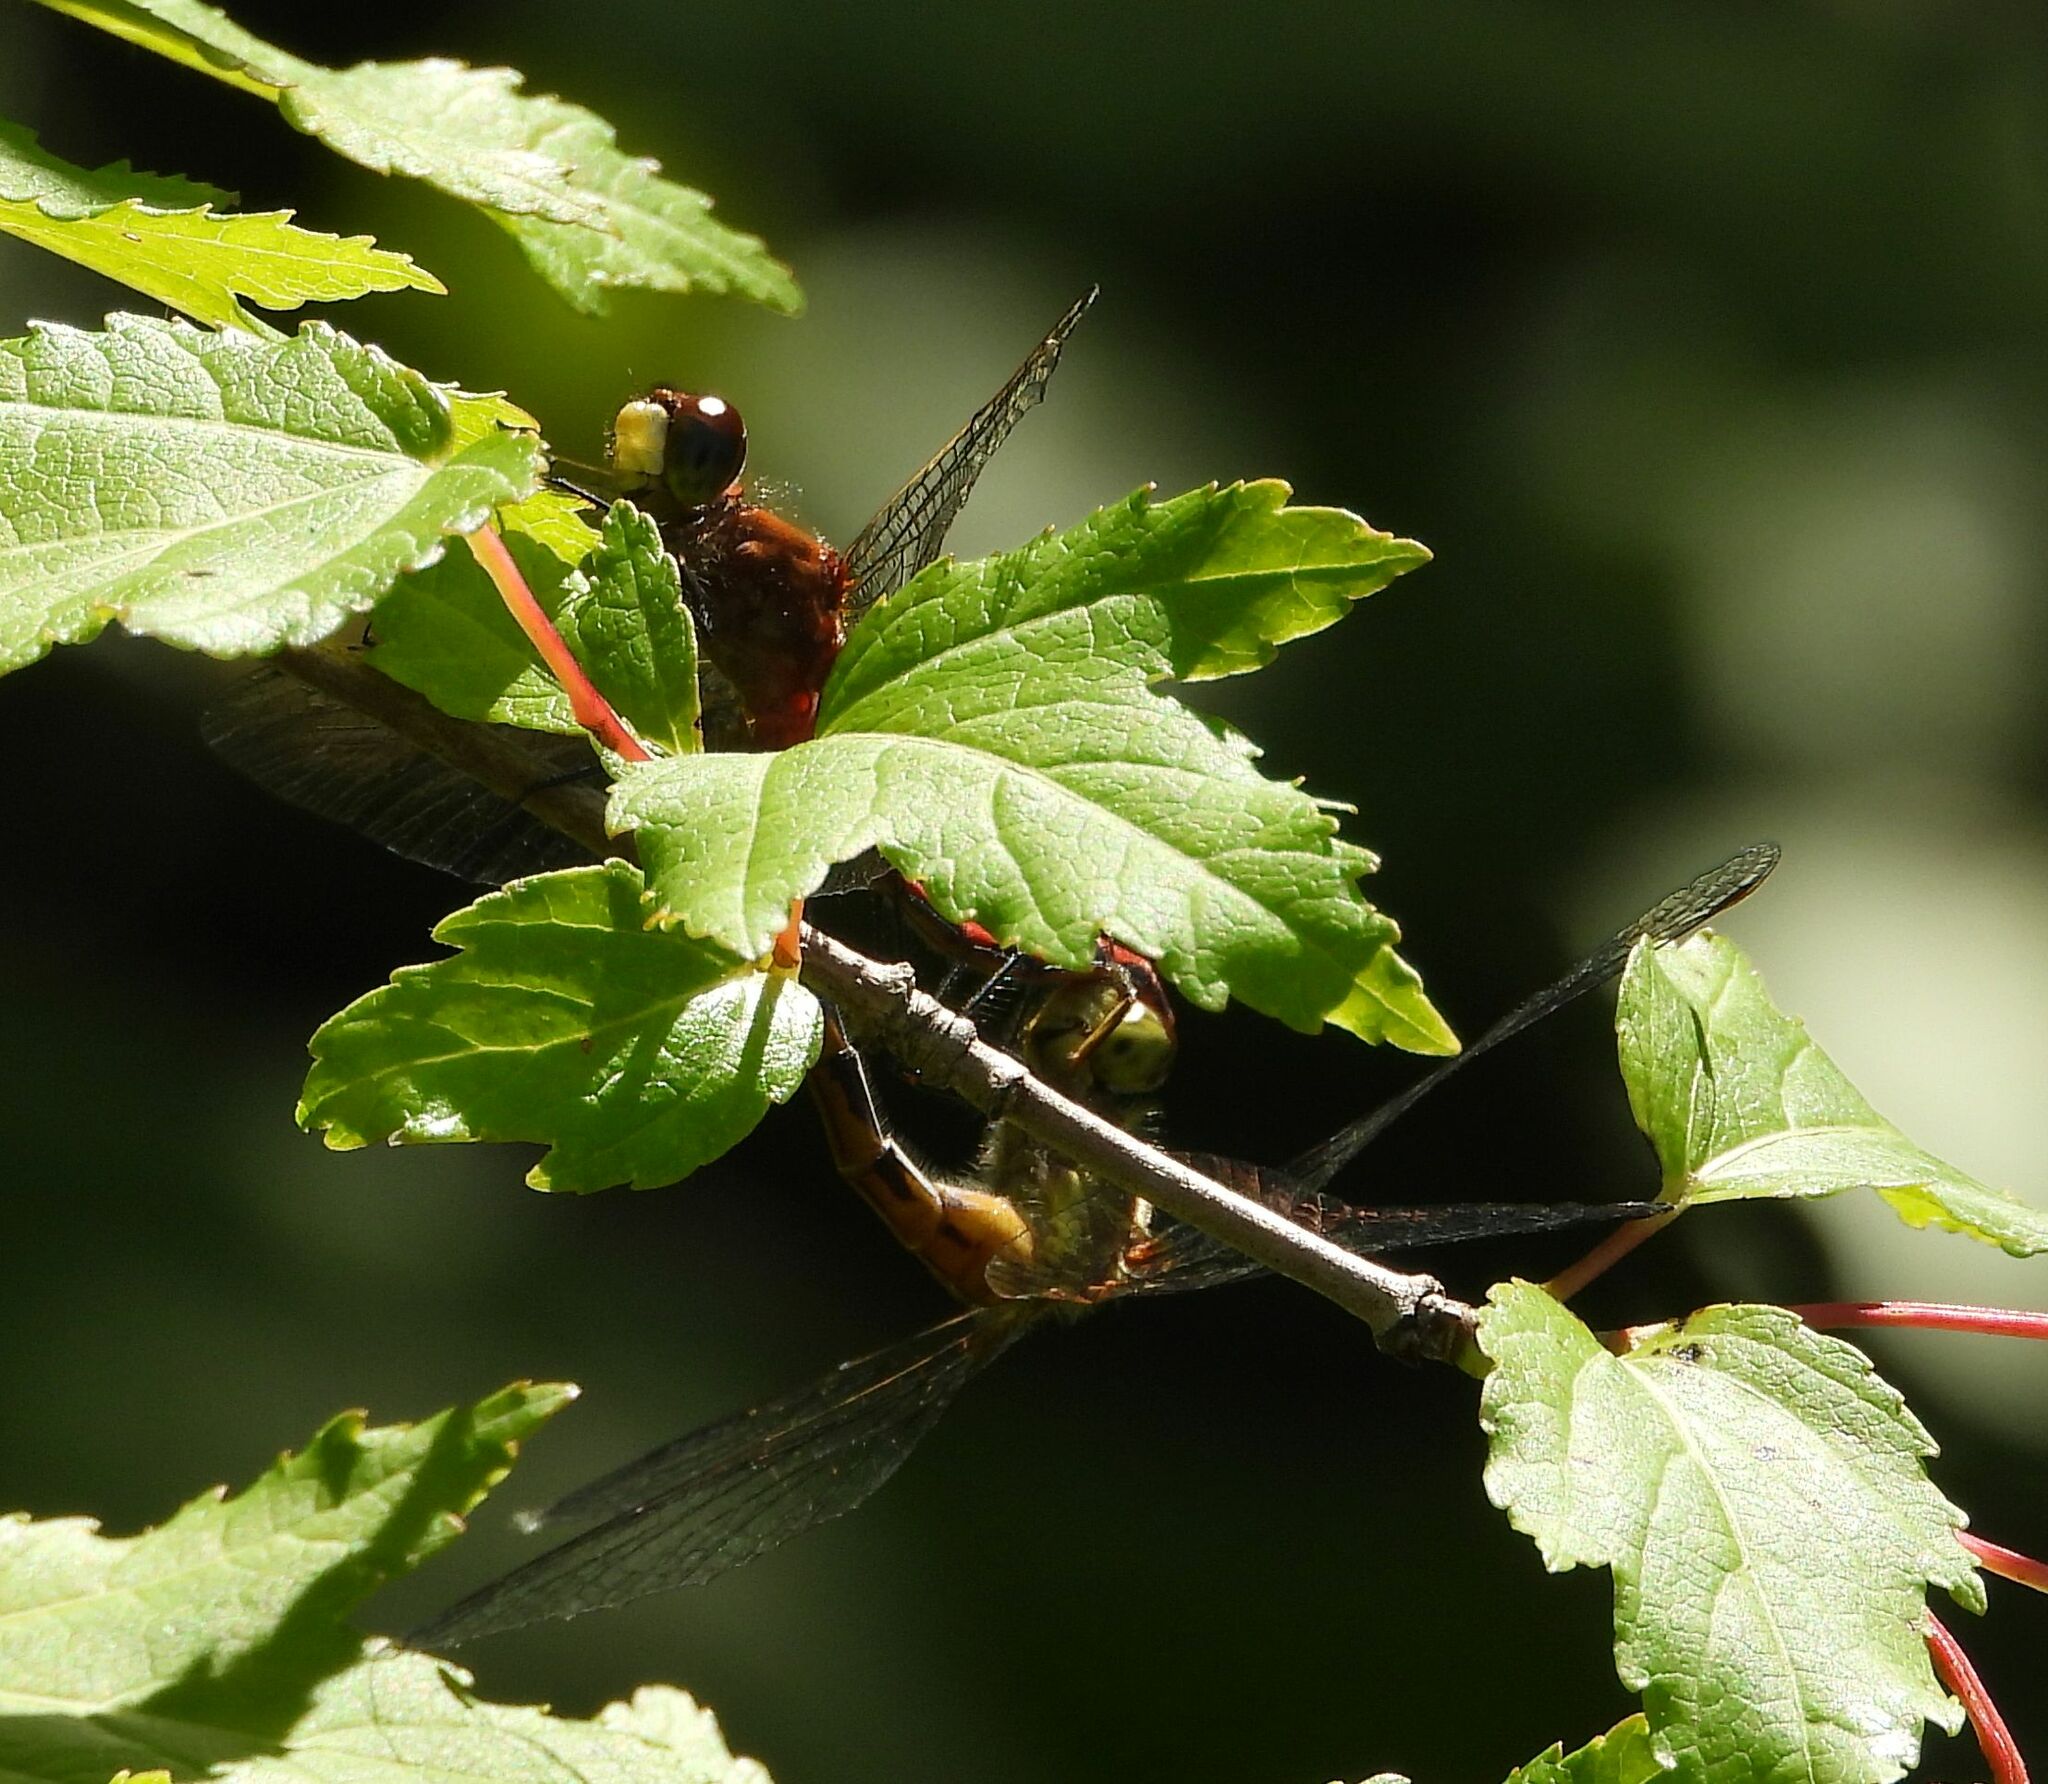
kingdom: Animalia
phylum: Arthropoda
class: Insecta
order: Odonata
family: Libellulidae
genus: Sympetrum
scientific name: Sympetrum obtrusum
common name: White-faced meadowhawk
